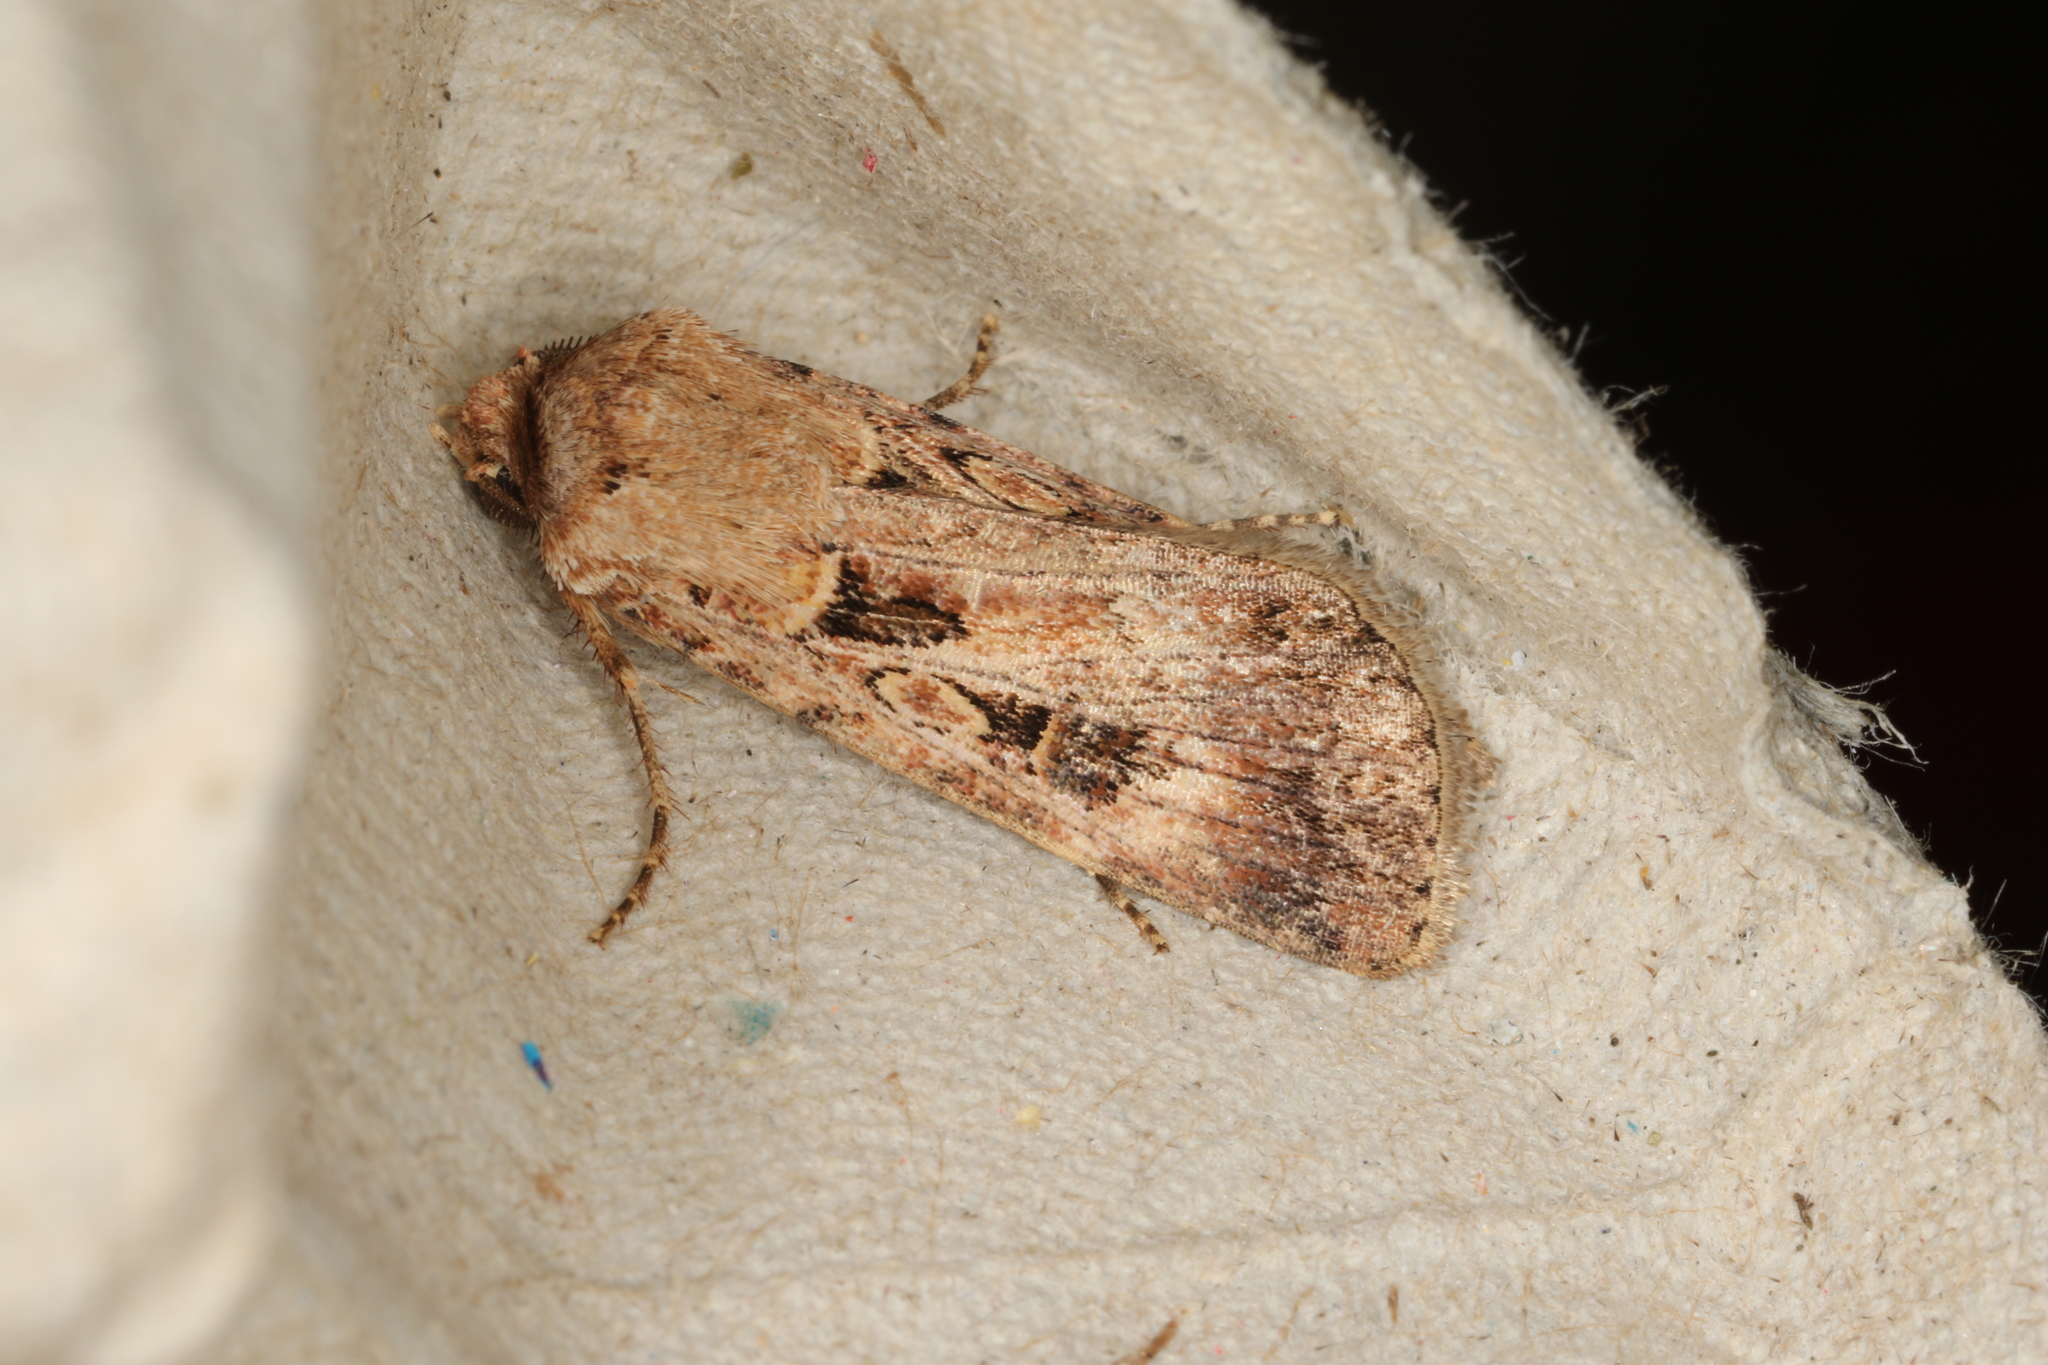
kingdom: Animalia
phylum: Arthropoda
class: Insecta
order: Lepidoptera
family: Noctuidae
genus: Agrotis
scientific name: Agrotis munda
